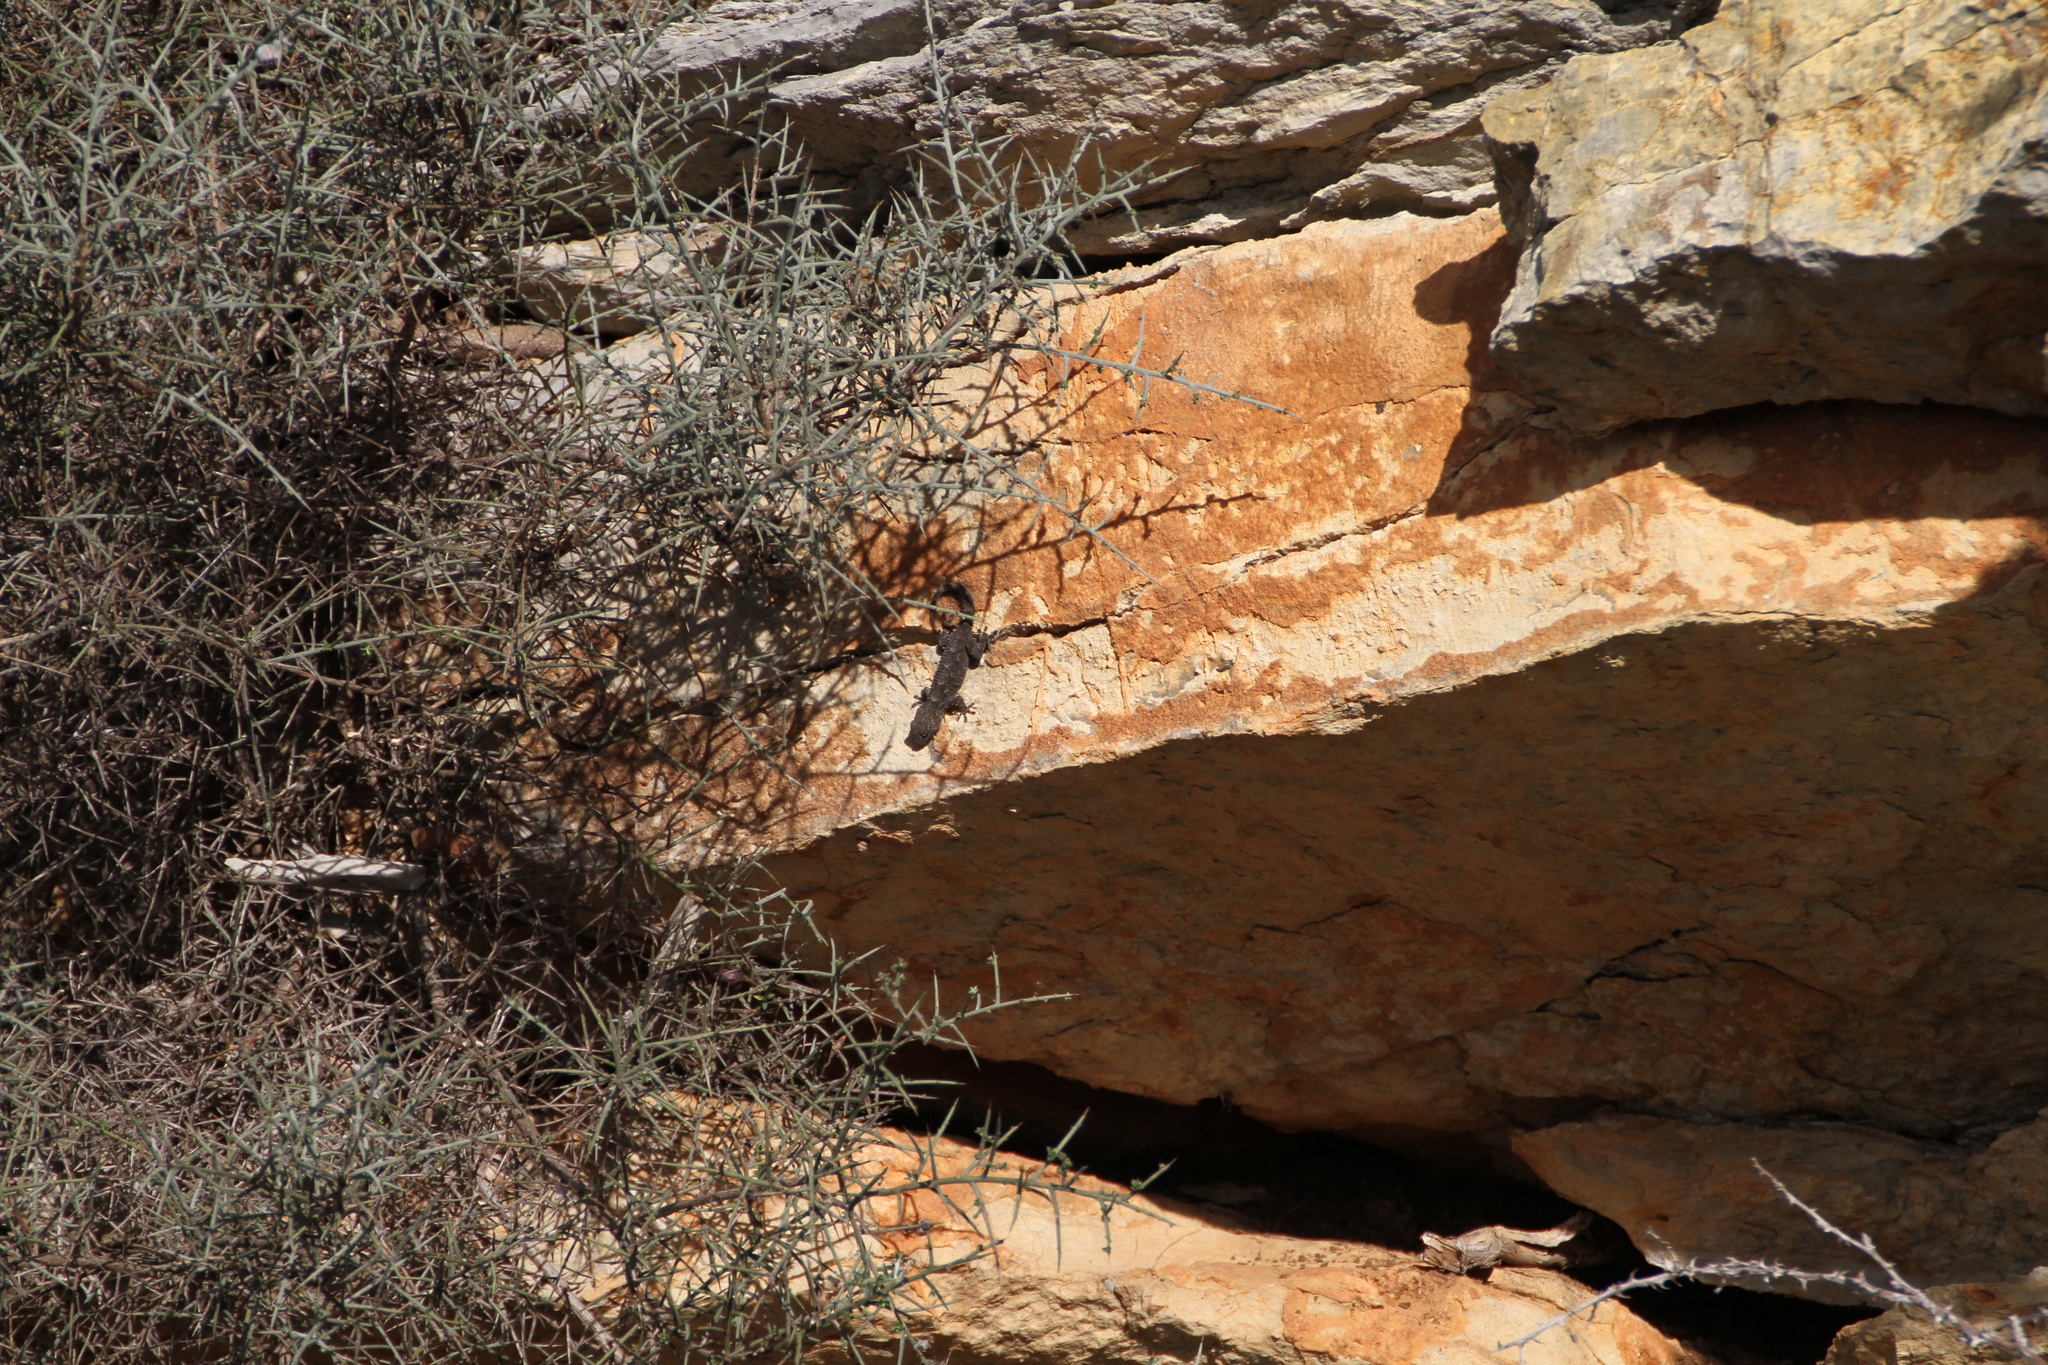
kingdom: Animalia
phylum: Chordata
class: Squamata
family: Phyllodactylidae
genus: Tarentola
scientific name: Tarentola mauritanica
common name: Moorish gecko
